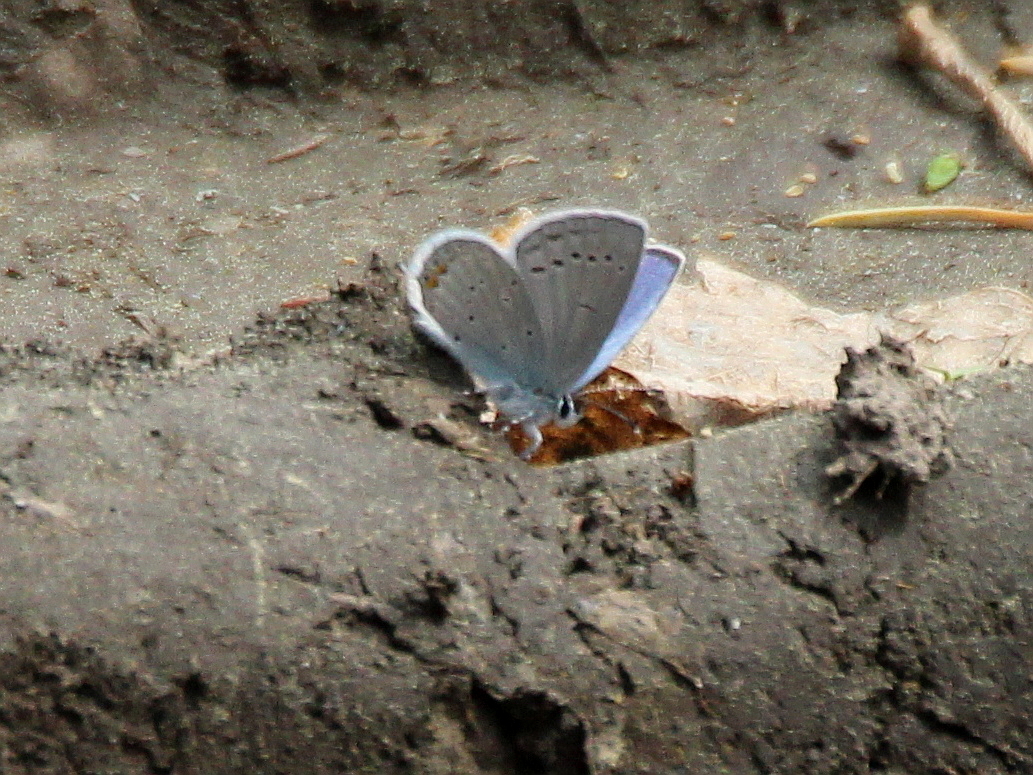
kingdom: Animalia
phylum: Arthropoda
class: Insecta
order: Lepidoptera
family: Lycaenidae
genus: Elkalyce
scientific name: Elkalyce argiades
